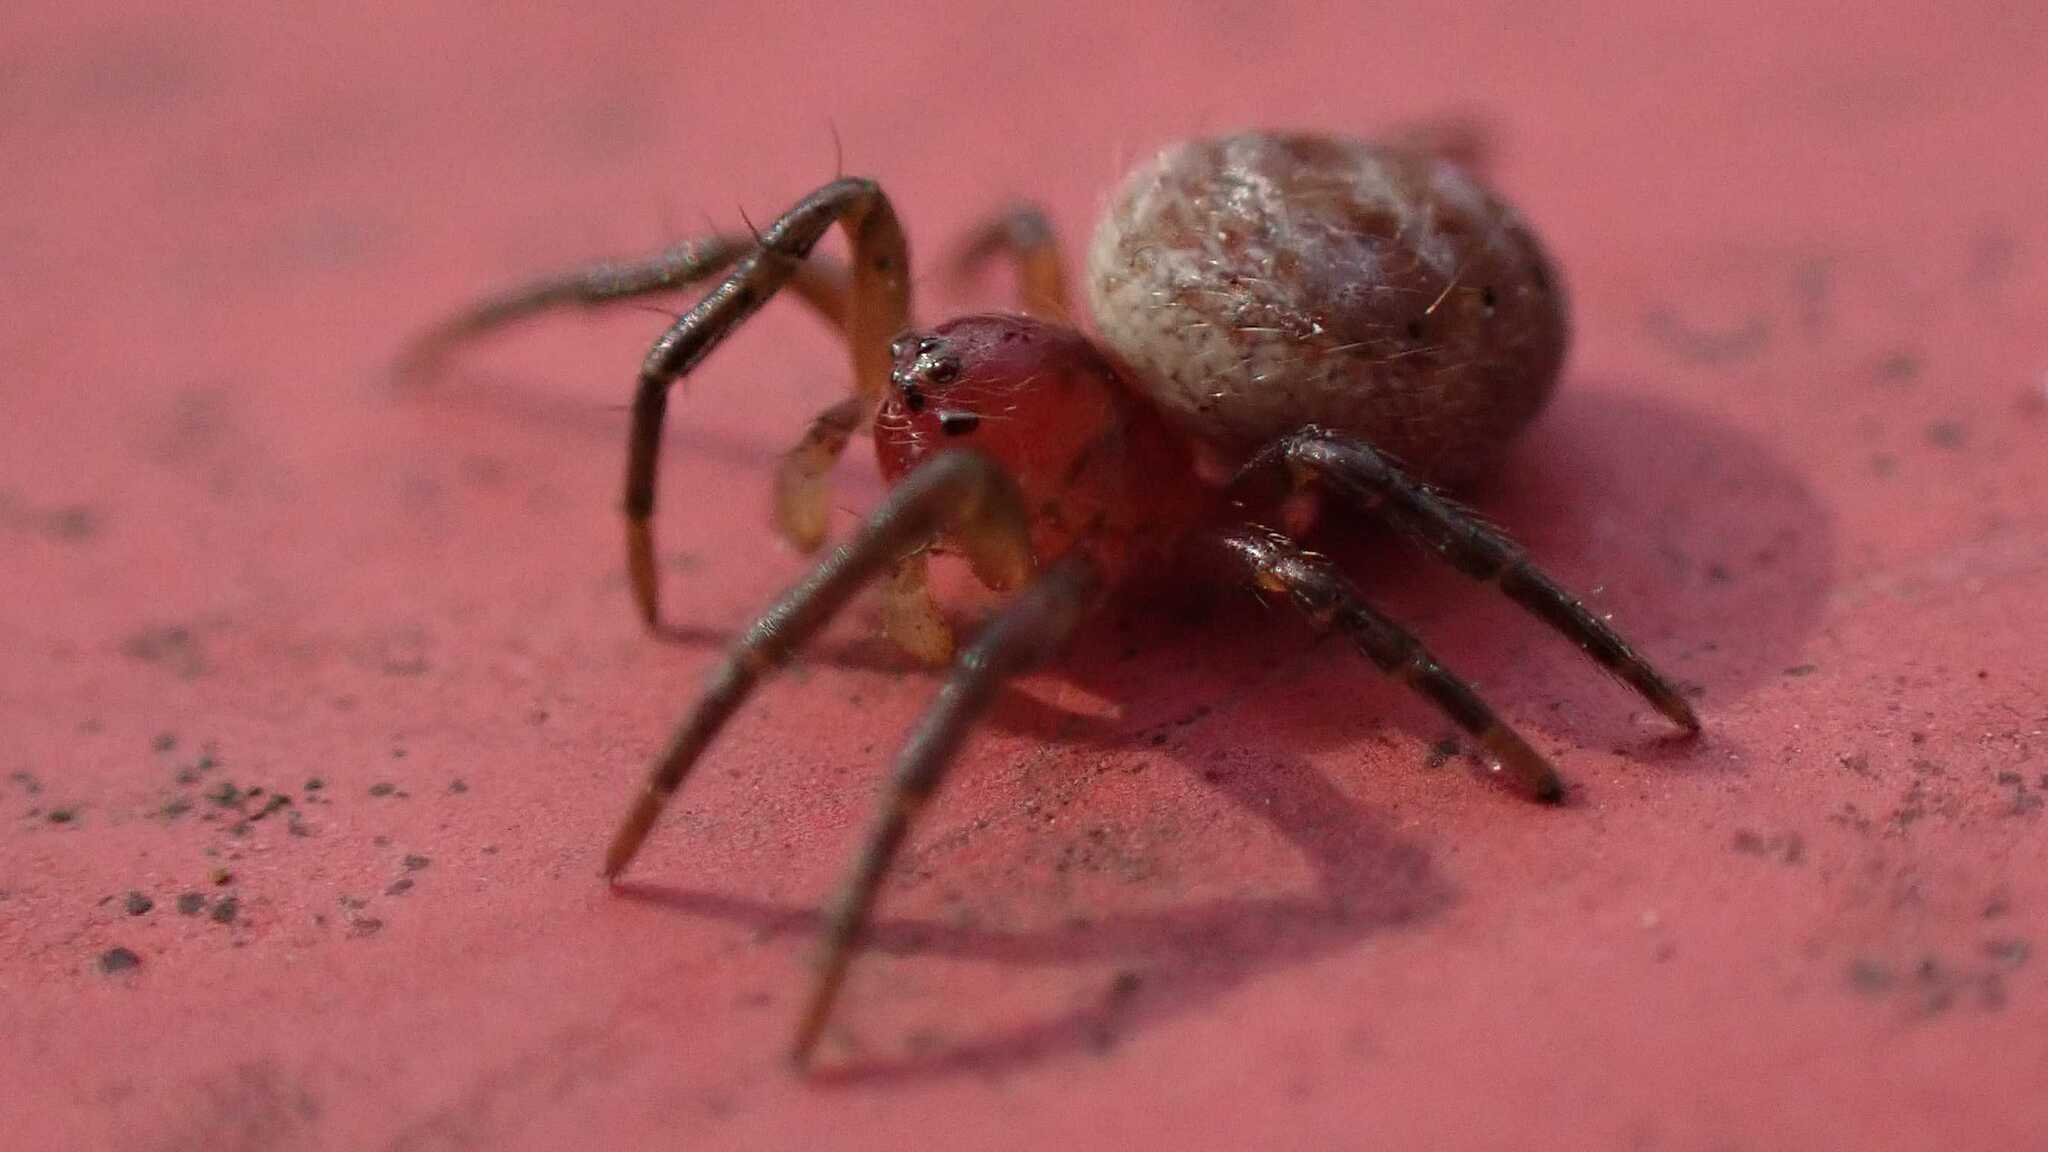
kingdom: Animalia
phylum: Arthropoda
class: Arachnida
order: Araneae
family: Araneidae
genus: Araniella
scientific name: Araniella
